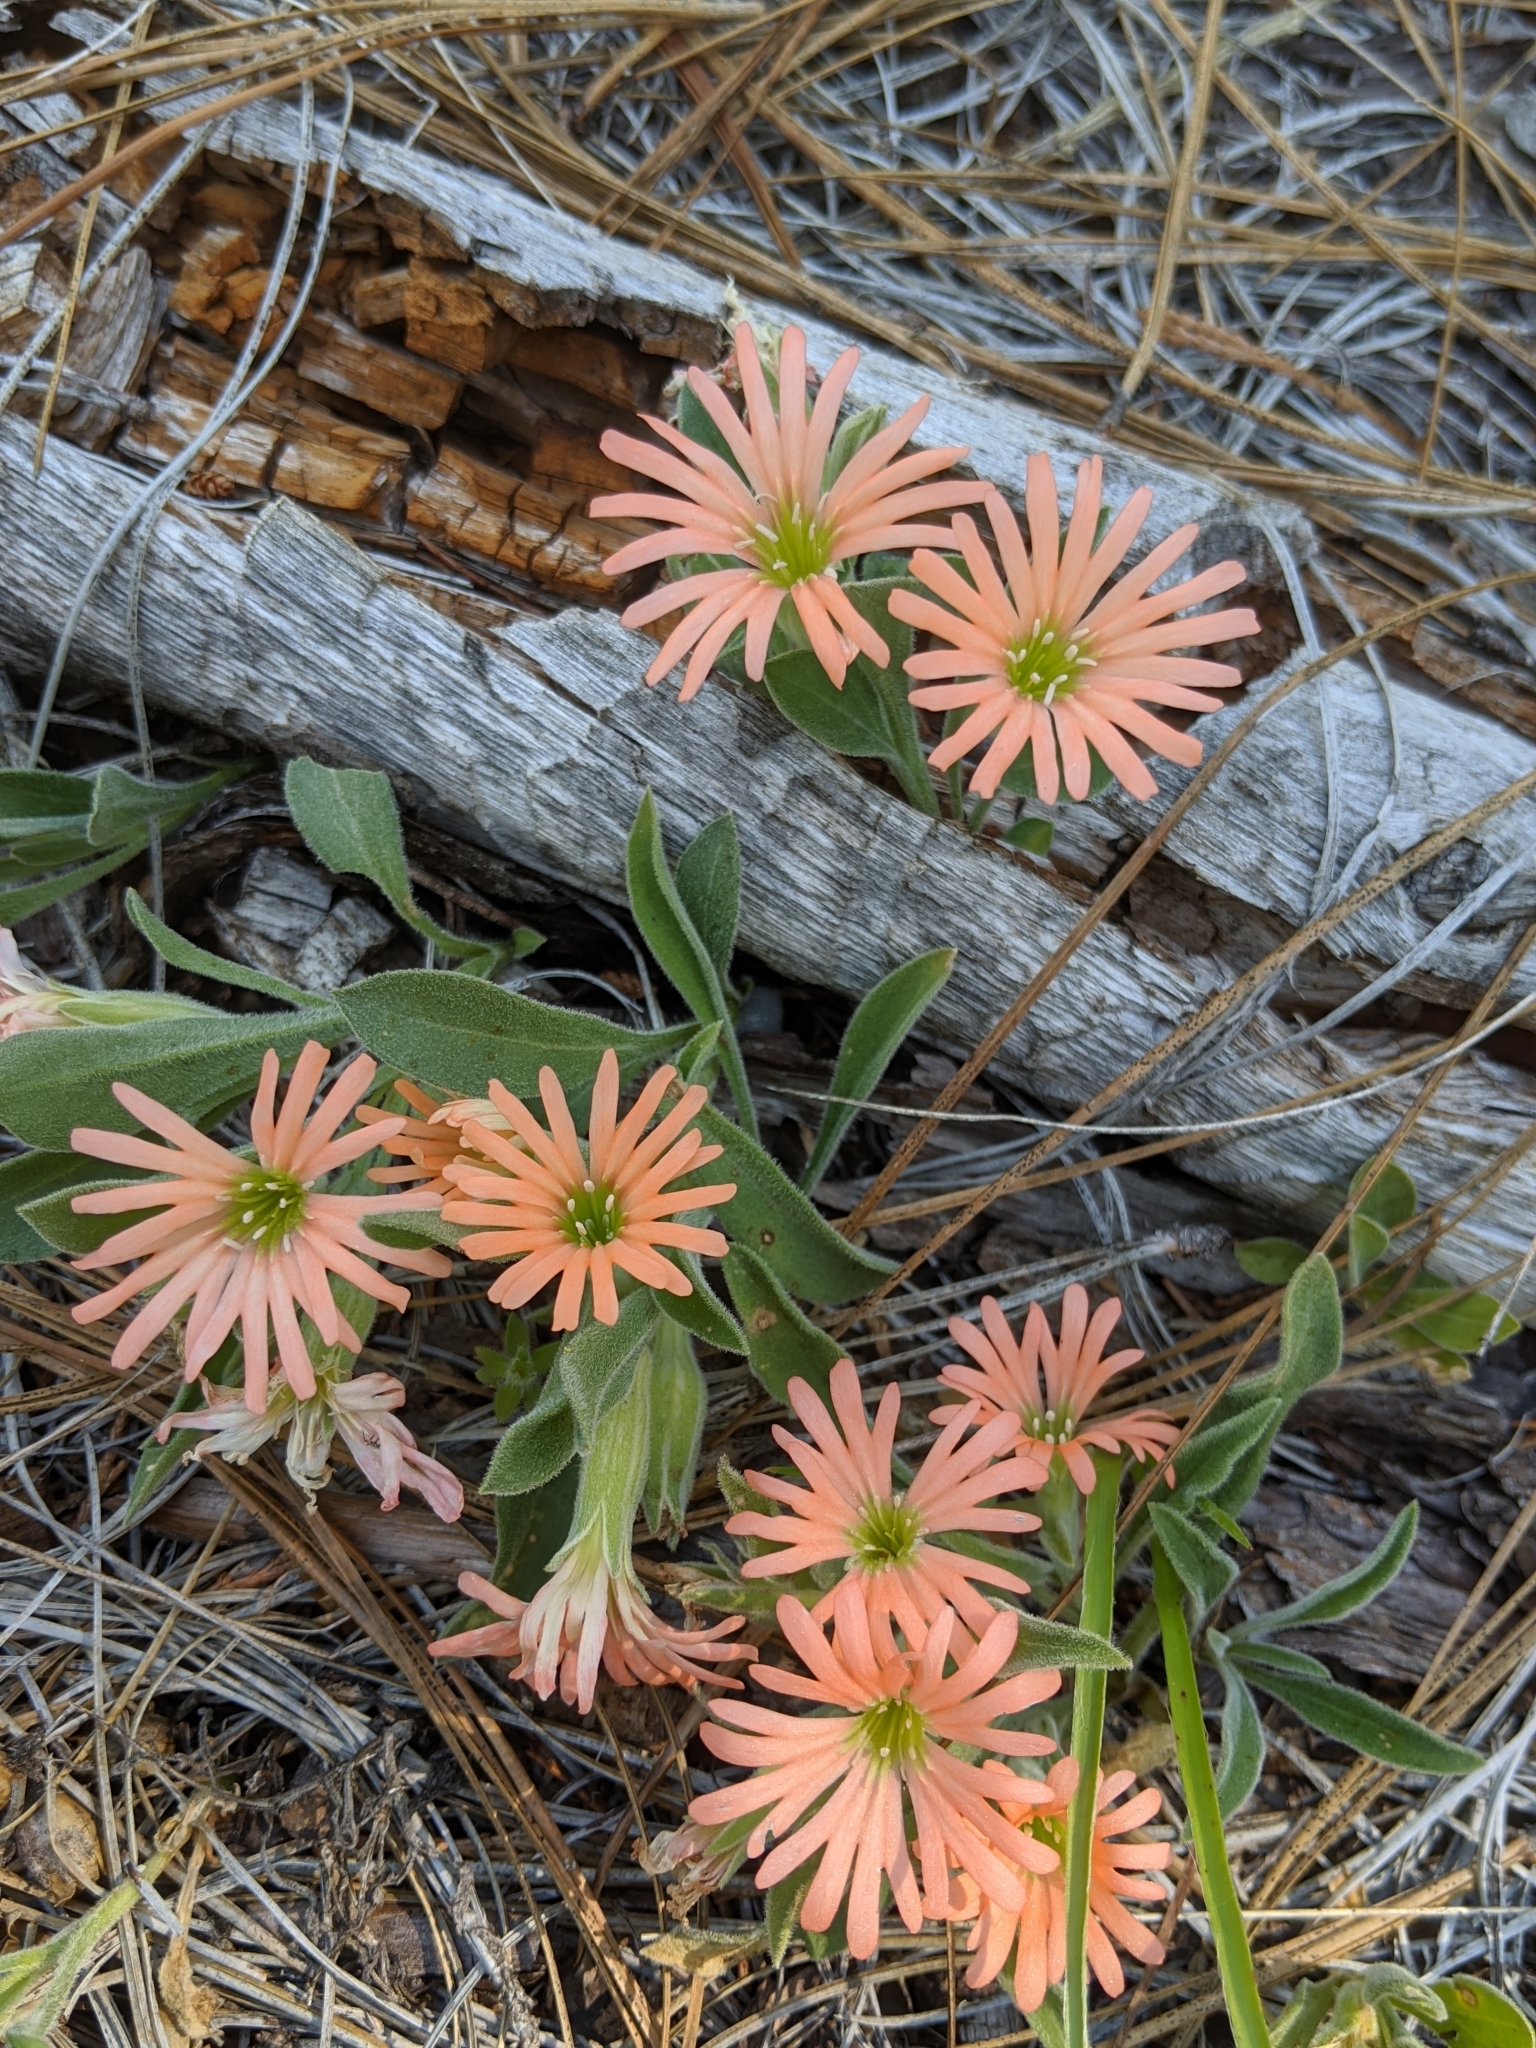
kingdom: Plantae
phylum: Tracheophyta
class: Magnoliopsida
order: Caryophyllales
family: Caryophyllaceae
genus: Silene
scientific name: Silene salmonacea
